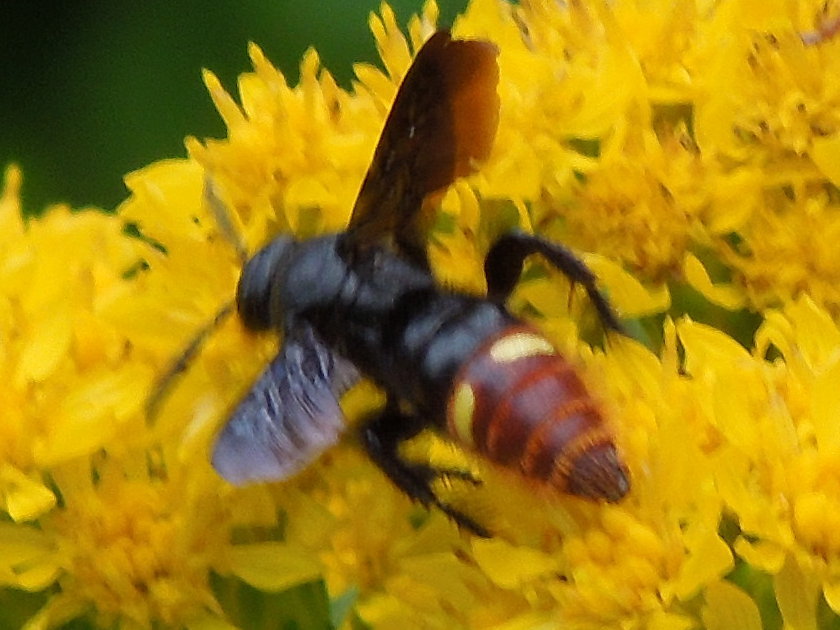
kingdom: Animalia
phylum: Arthropoda
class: Insecta
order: Hymenoptera
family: Scoliidae
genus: Scolia
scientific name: Scolia dubia
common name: Blue-winged scoliid wasp
